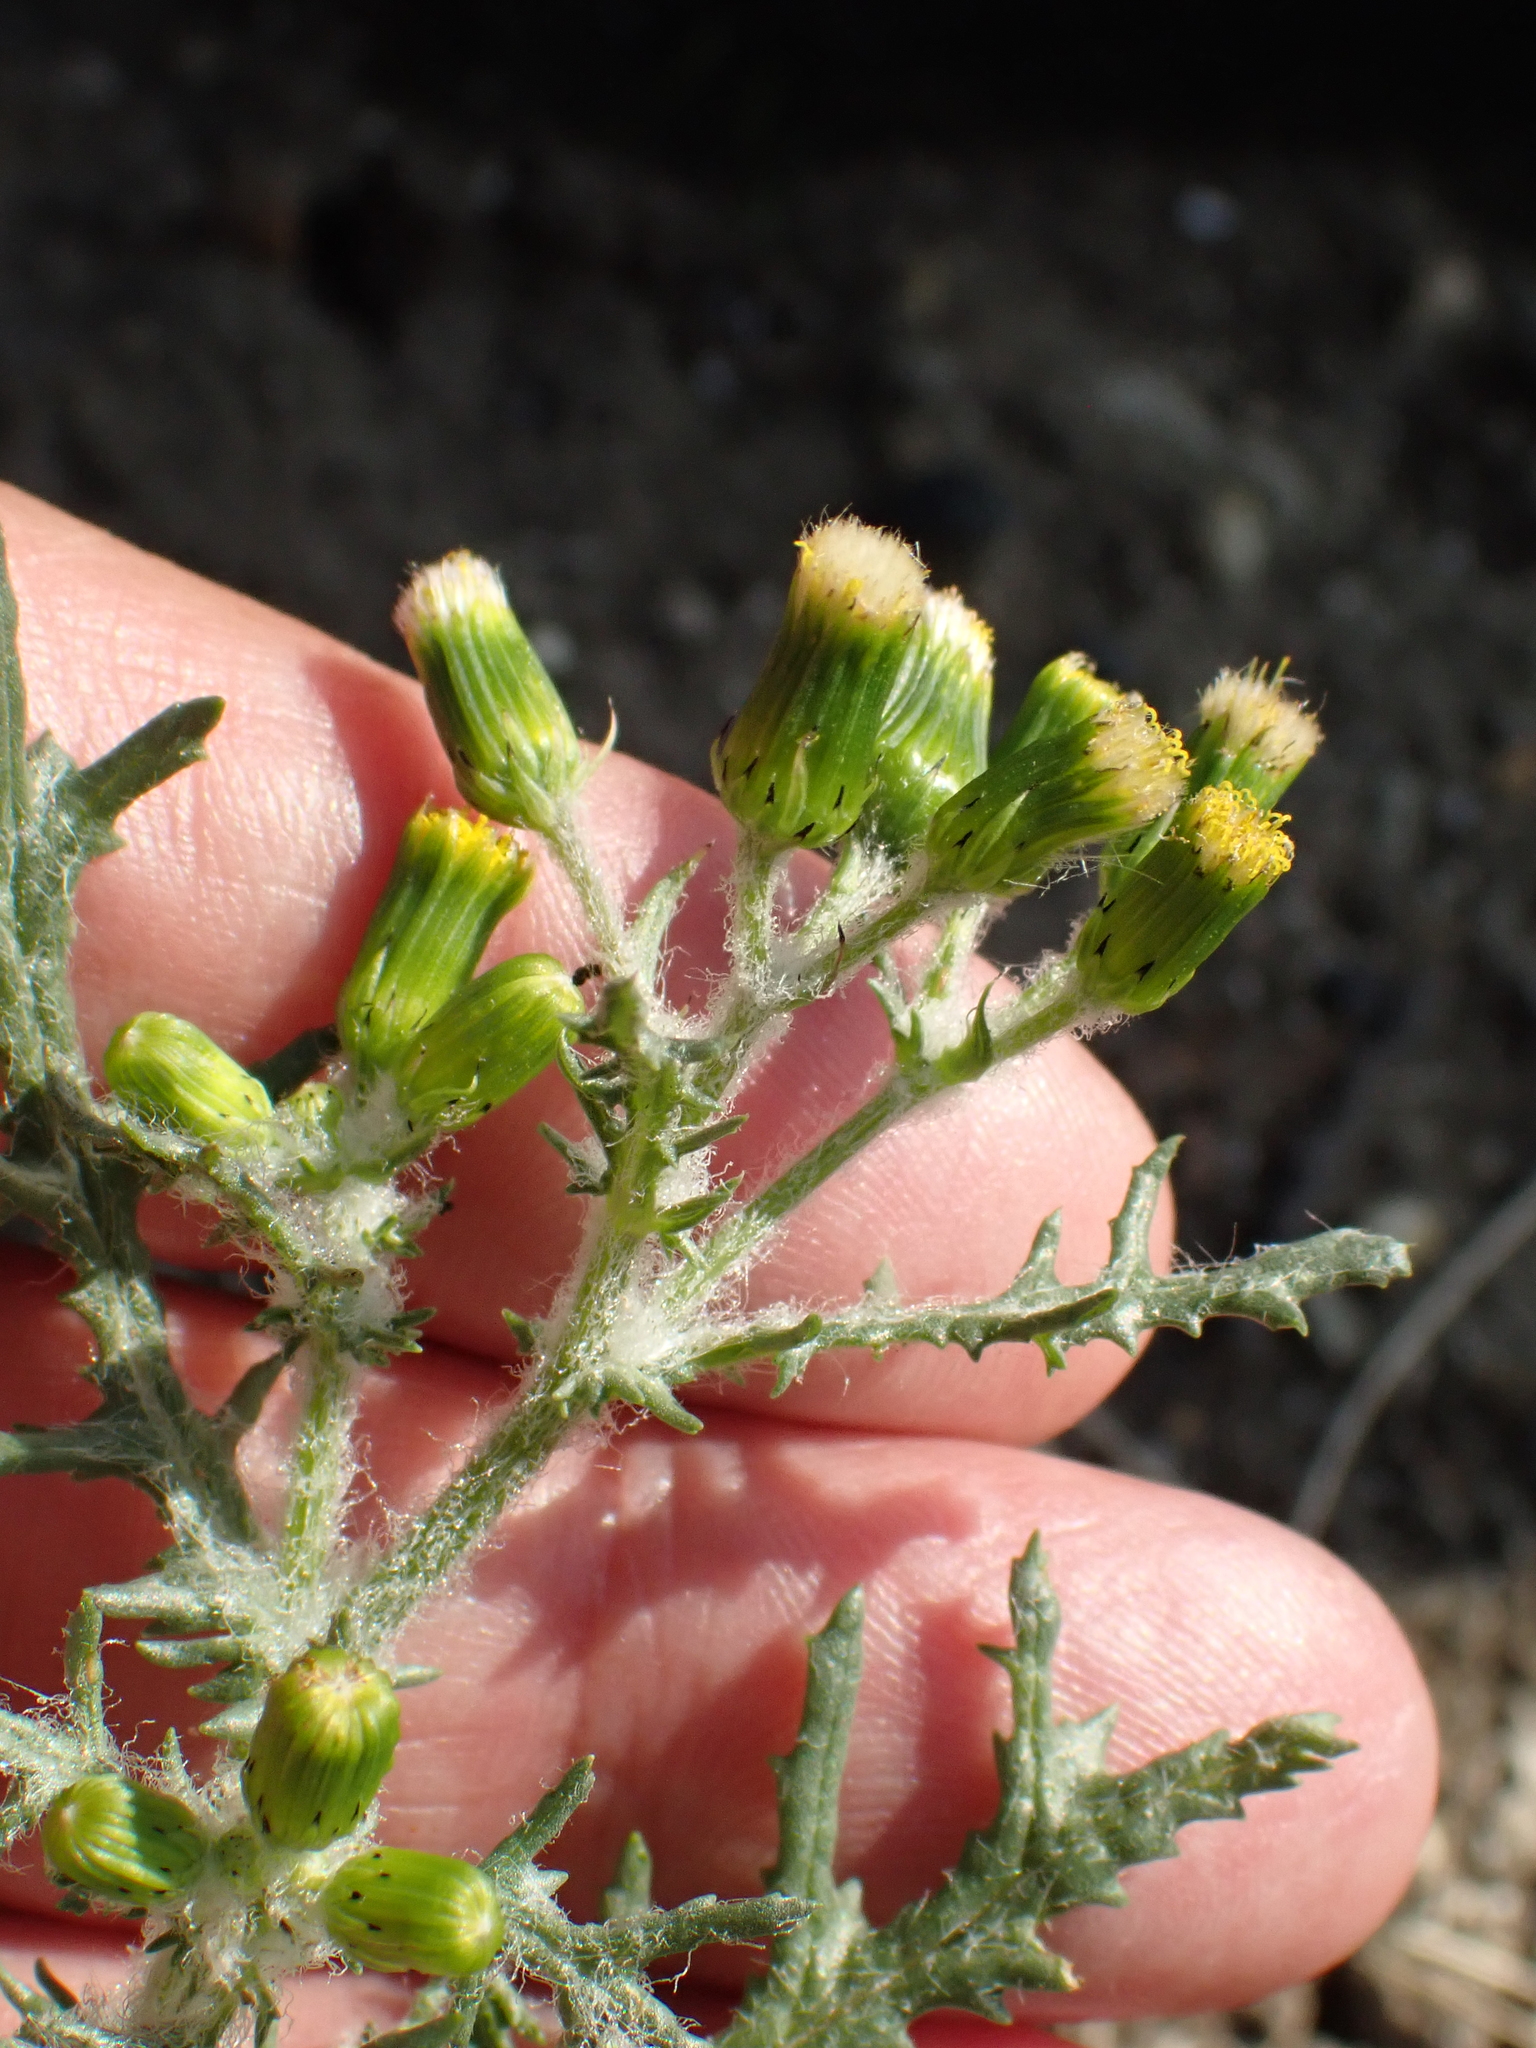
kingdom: Plantae
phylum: Tracheophyta
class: Magnoliopsida
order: Asterales
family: Asteraceae
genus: Senecio
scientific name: Senecio vulgaris
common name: Old-man-in-the-spring
